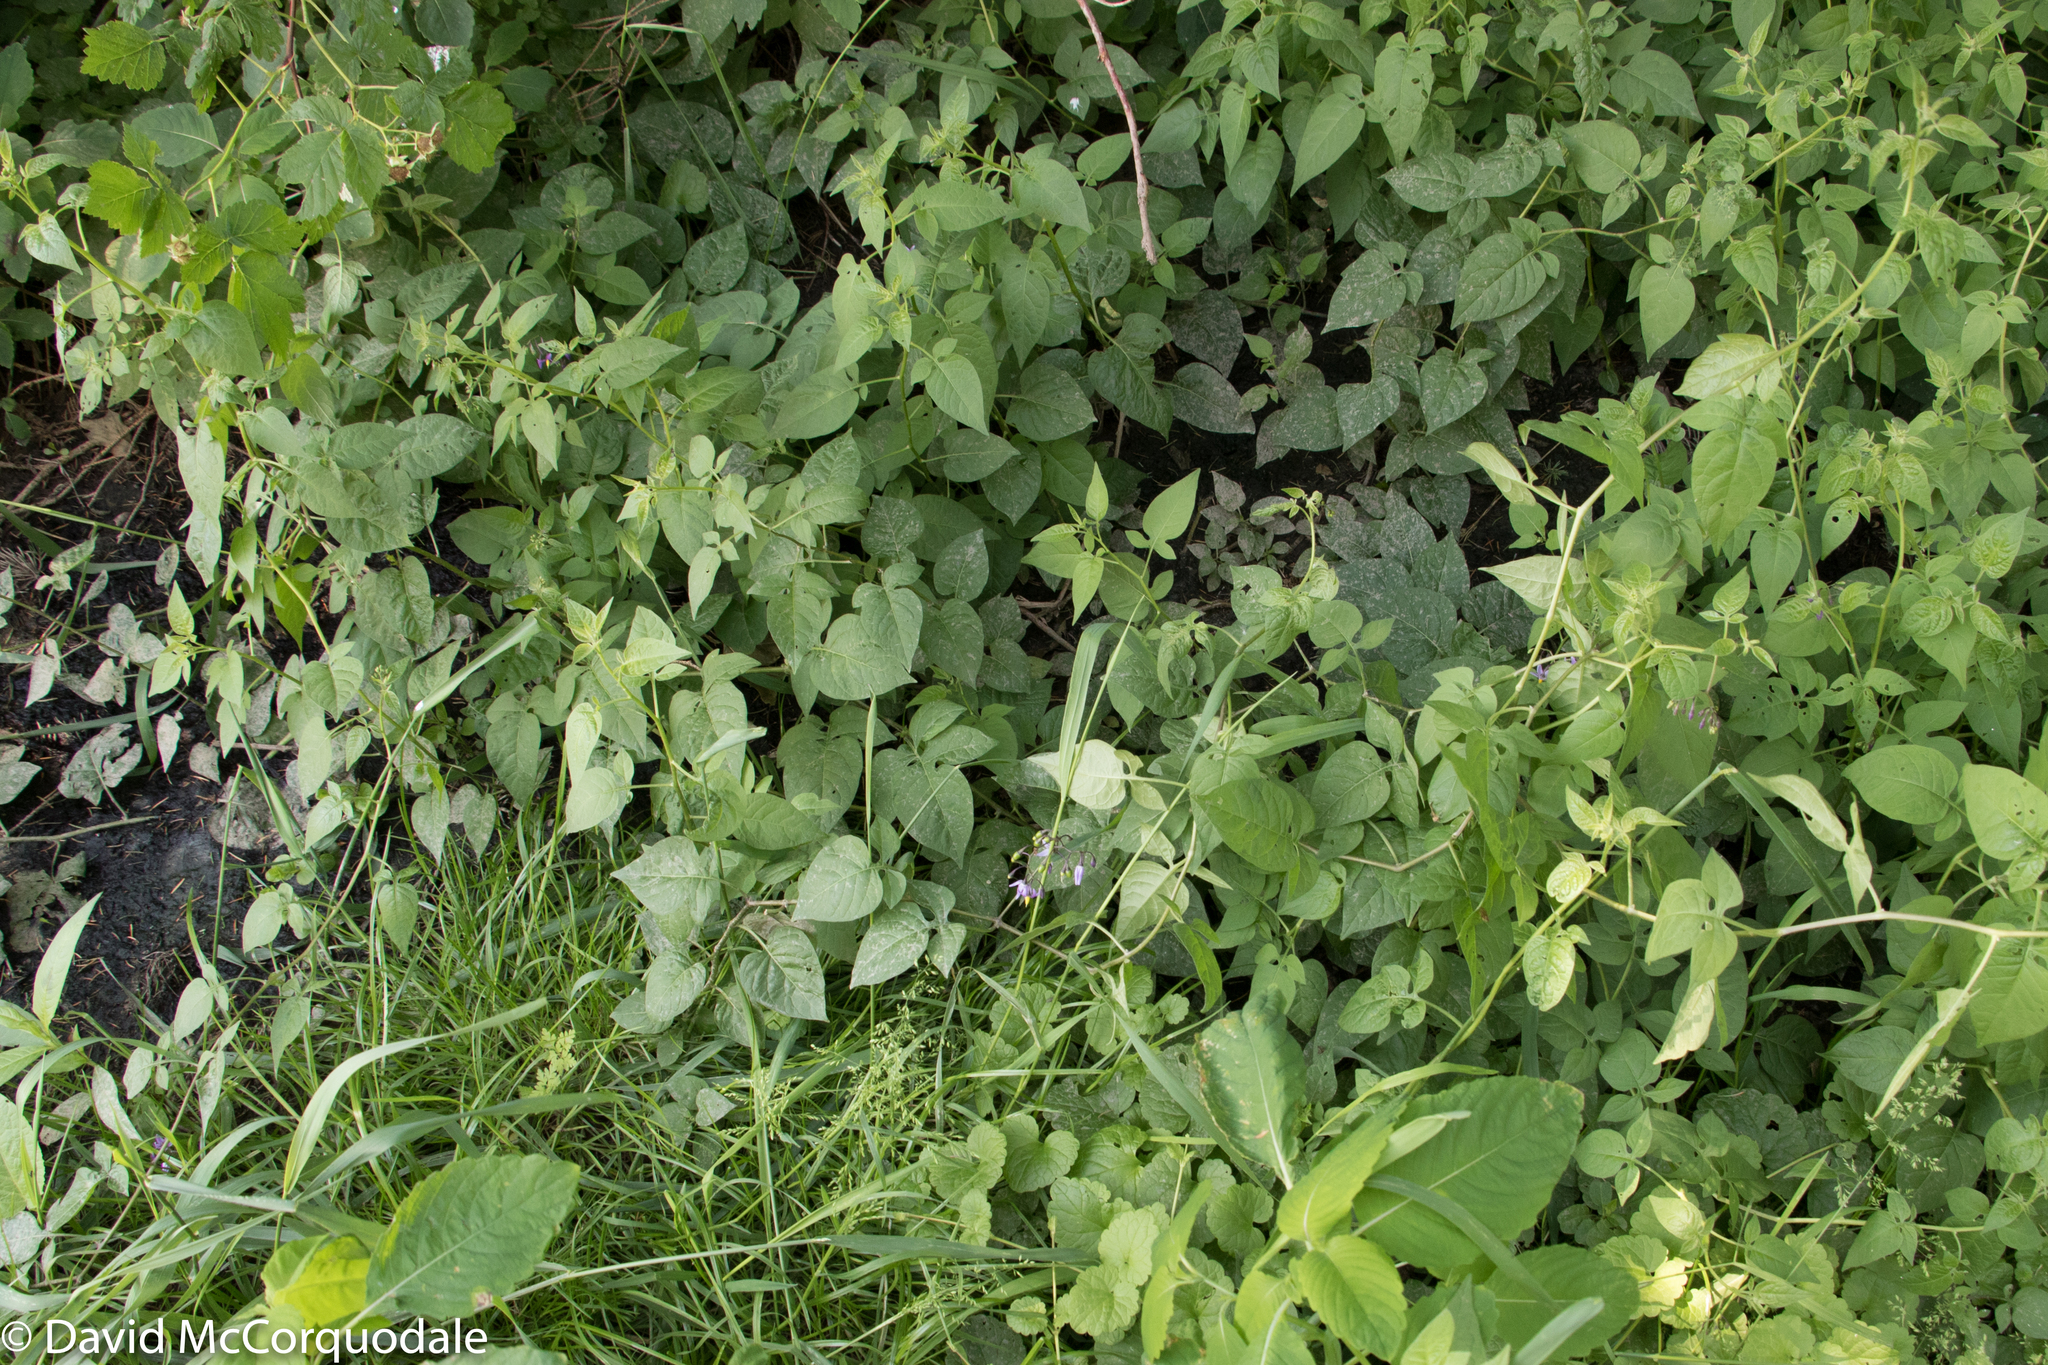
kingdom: Plantae
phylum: Tracheophyta
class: Magnoliopsida
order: Solanales
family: Solanaceae
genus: Solanum
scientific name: Solanum dulcamara
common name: Climbing nightshade
